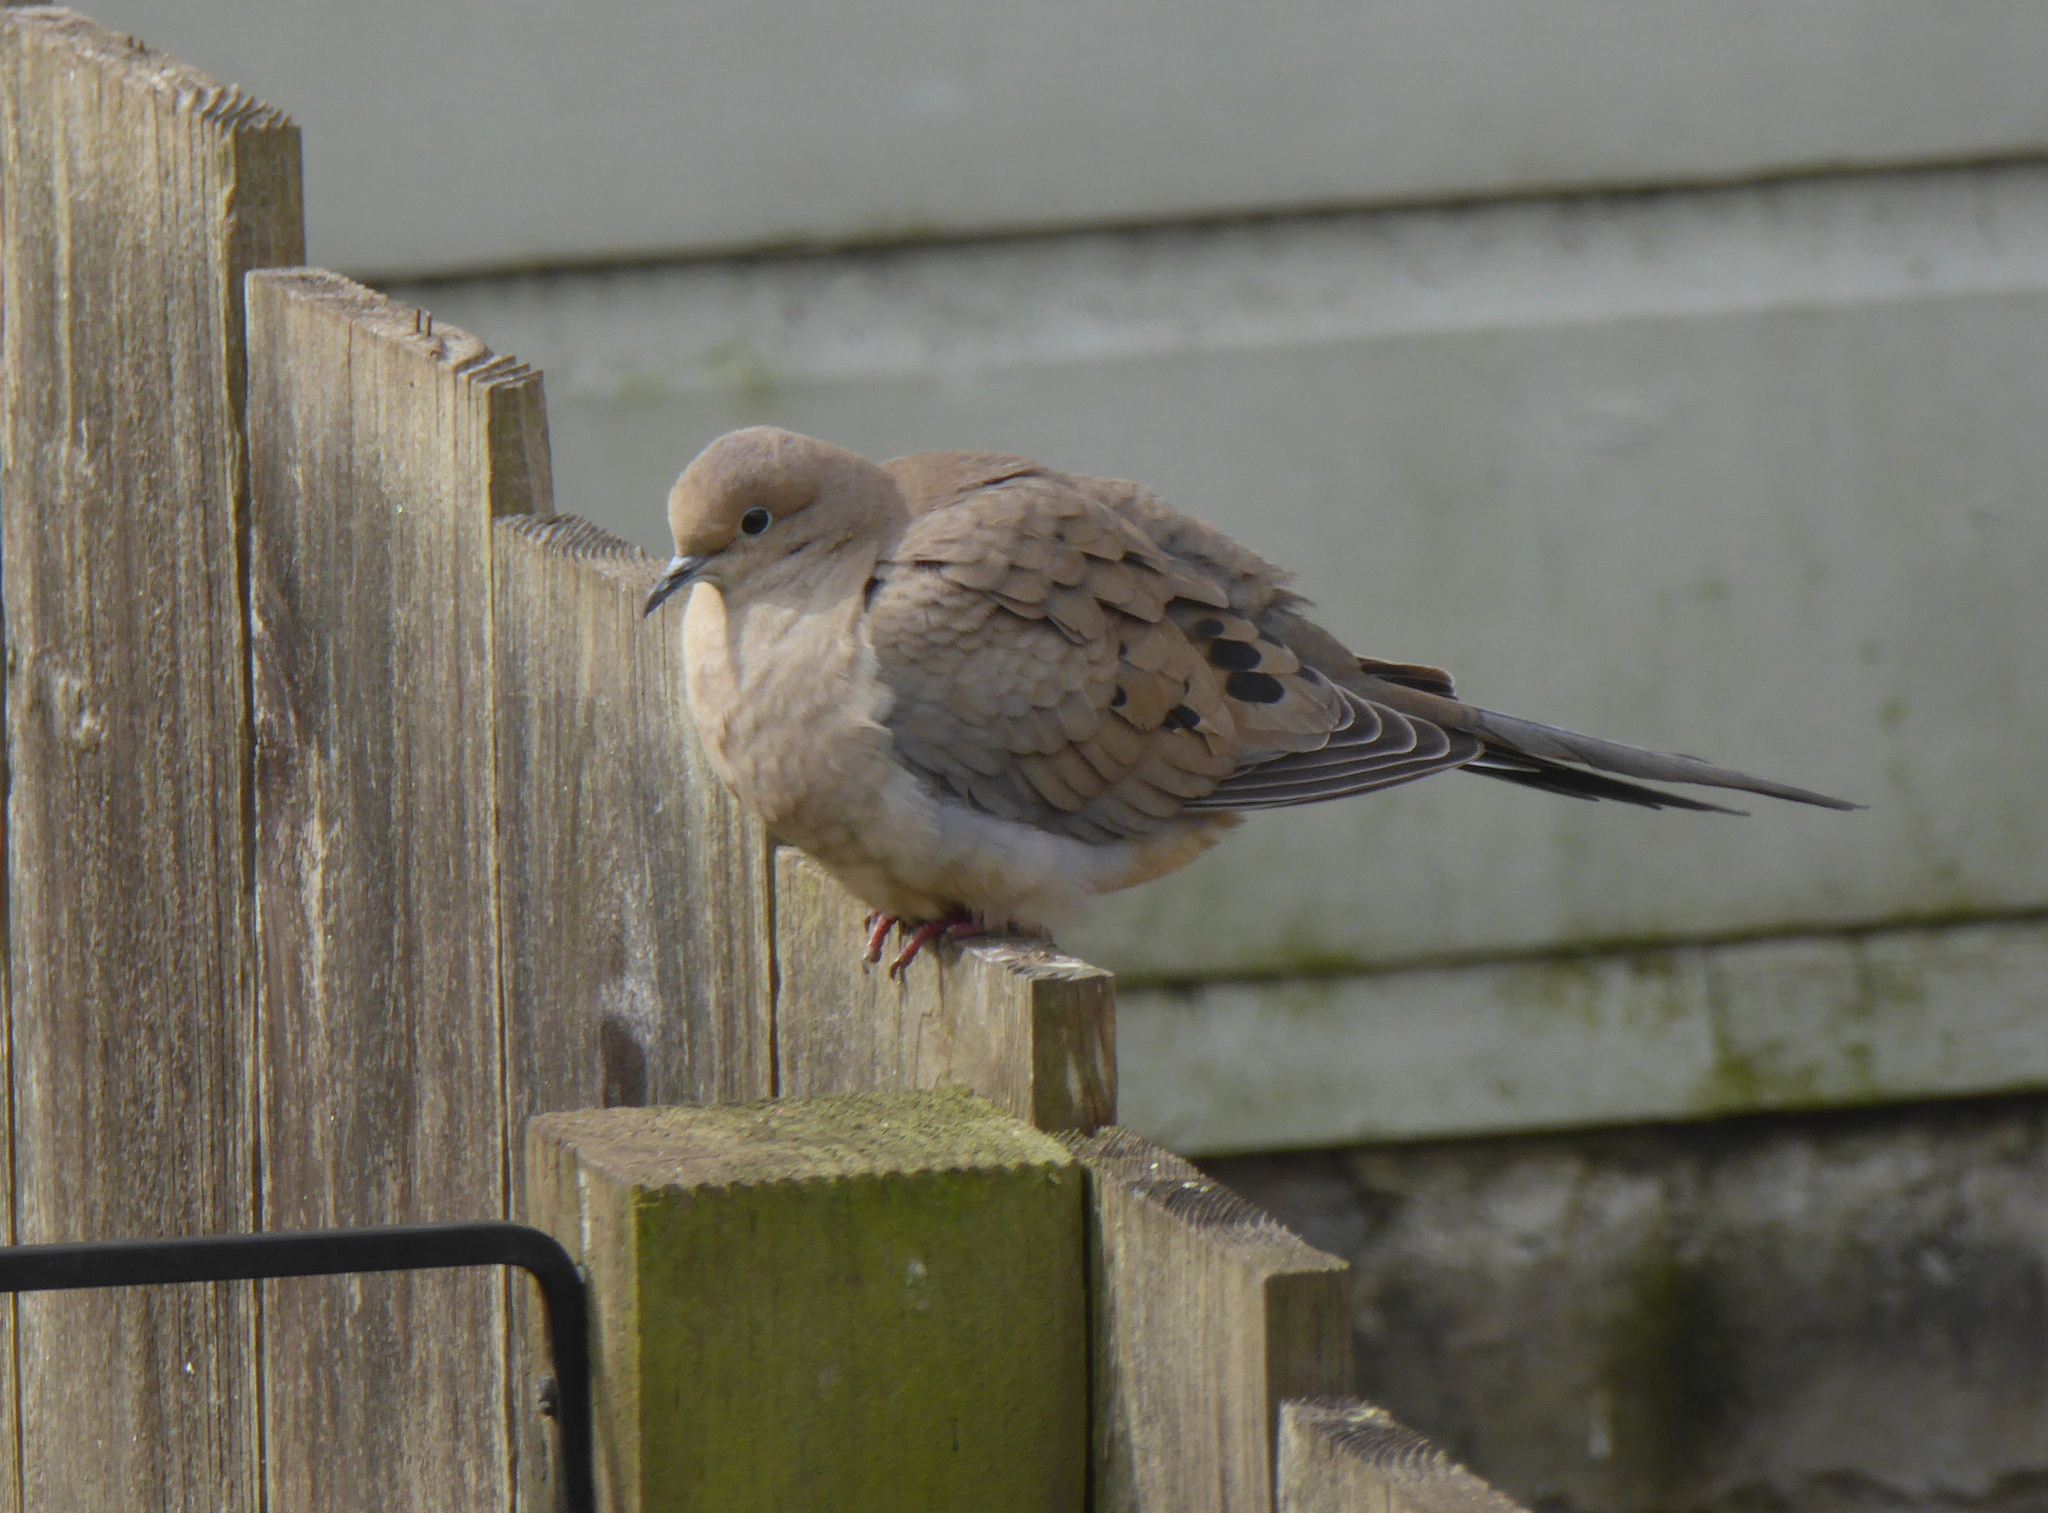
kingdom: Animalia
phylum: Chordata
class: Aves
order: Columbiformes
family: Columbidae
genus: Zenaida
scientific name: Zenaida macroura
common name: Mourning dove
